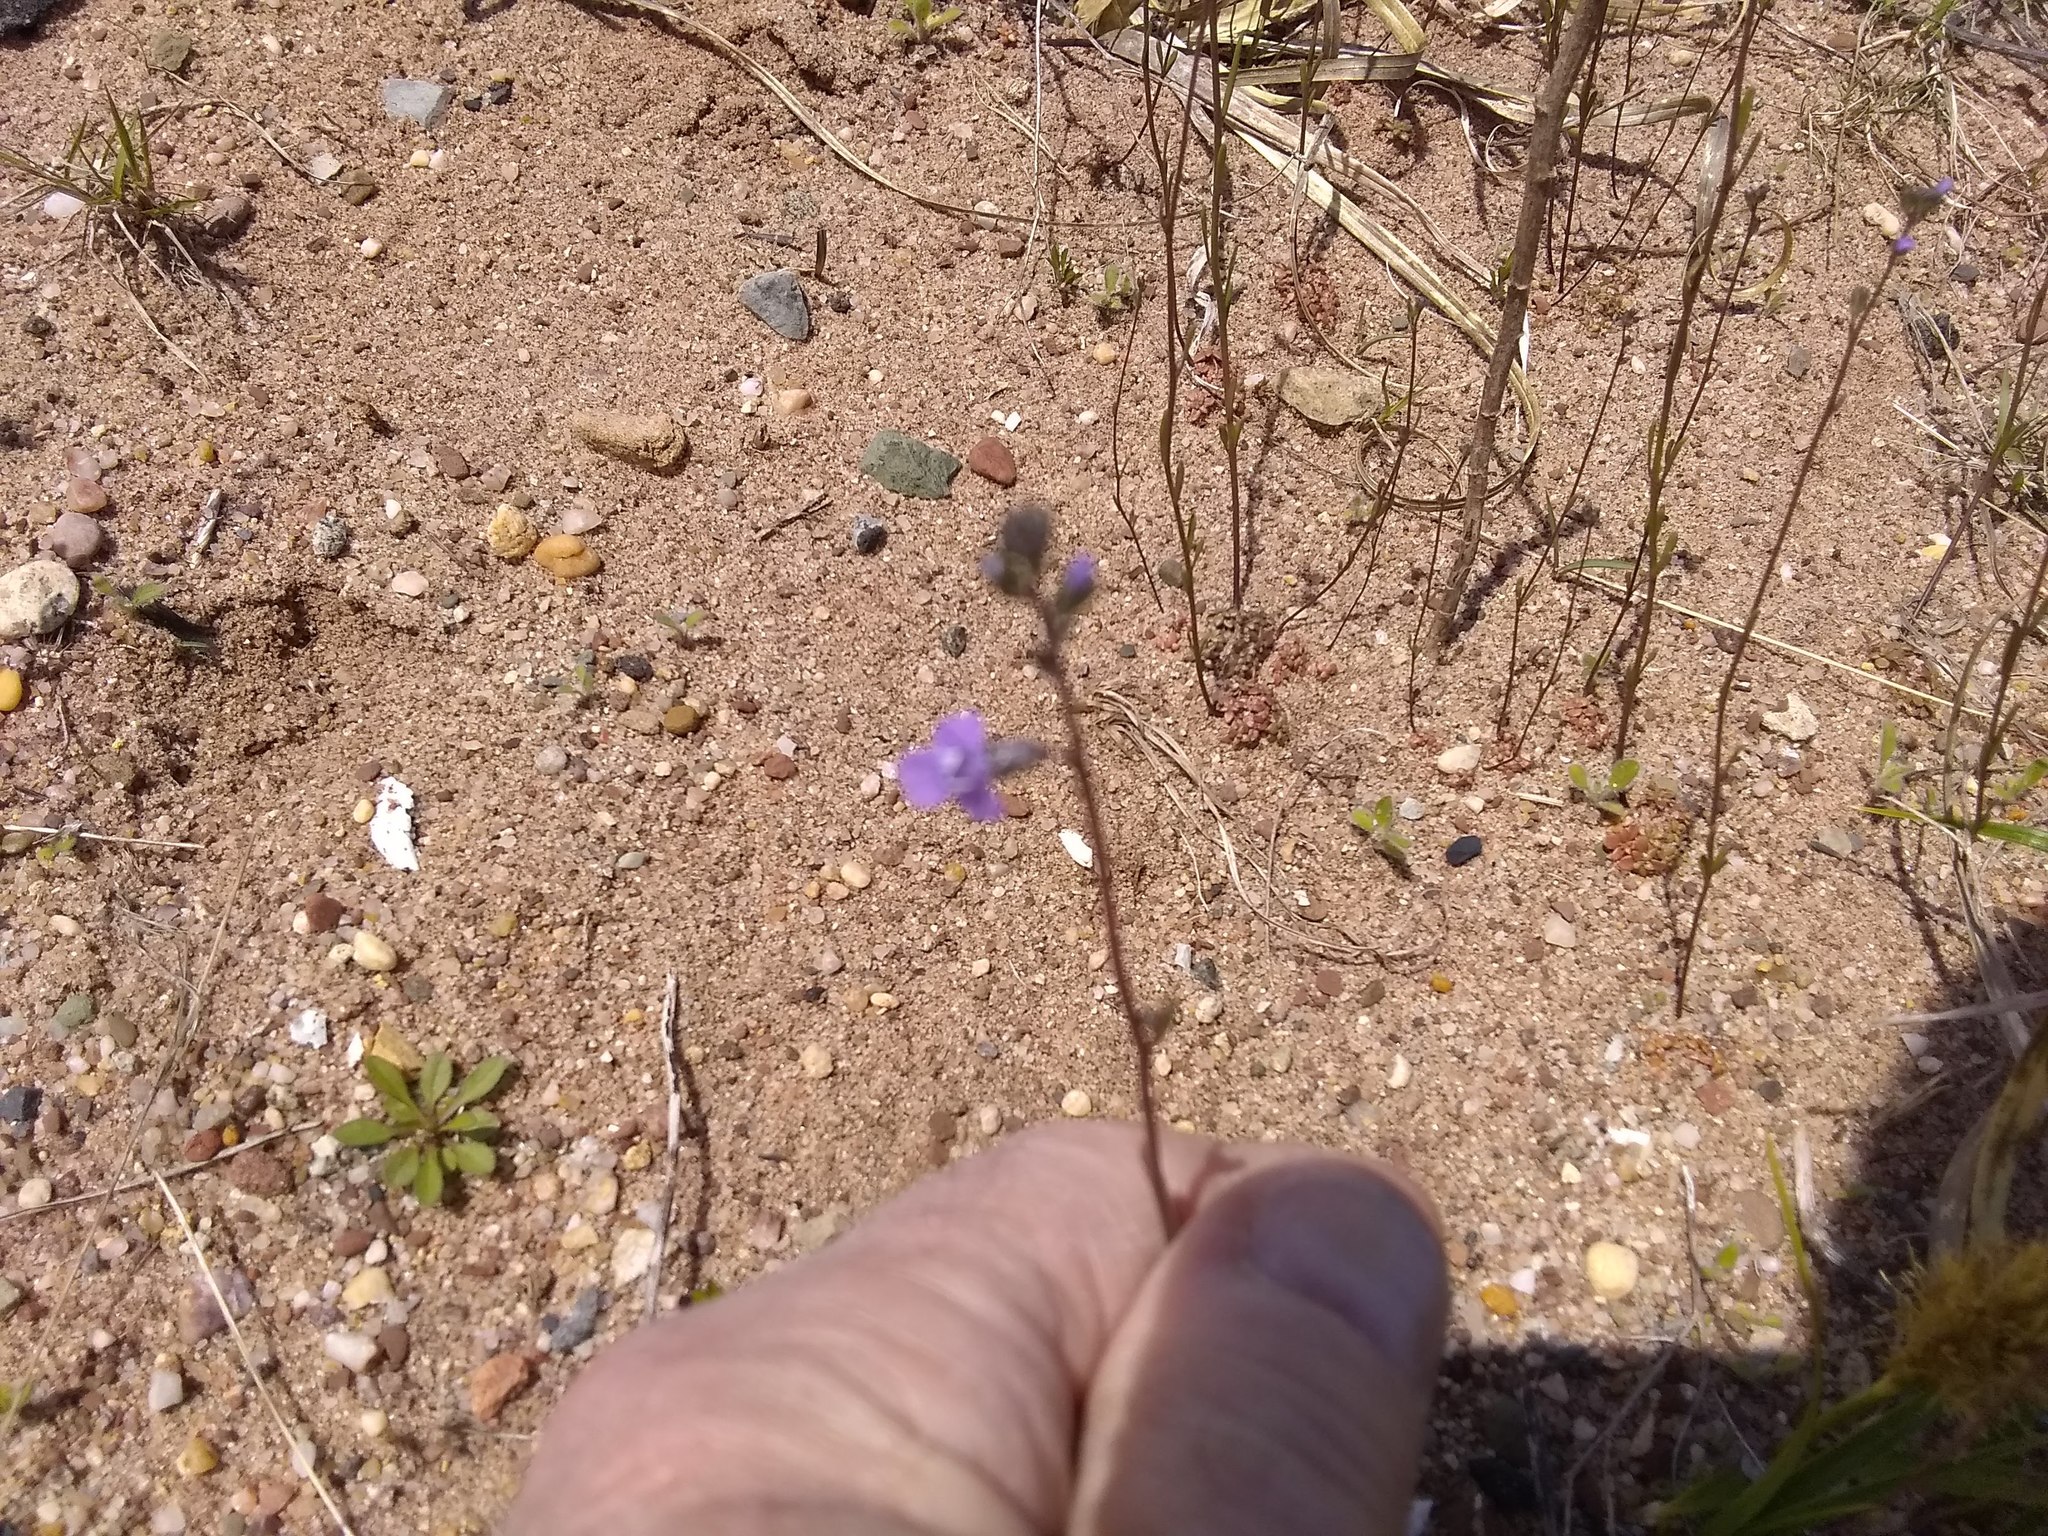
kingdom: Plantae
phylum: Tracheophyta
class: Magnoliopsida
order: Lamiales
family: Plantaginaceae
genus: Nuttallanthus
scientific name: Nuttallanthus canadensis
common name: Blue toadflax
